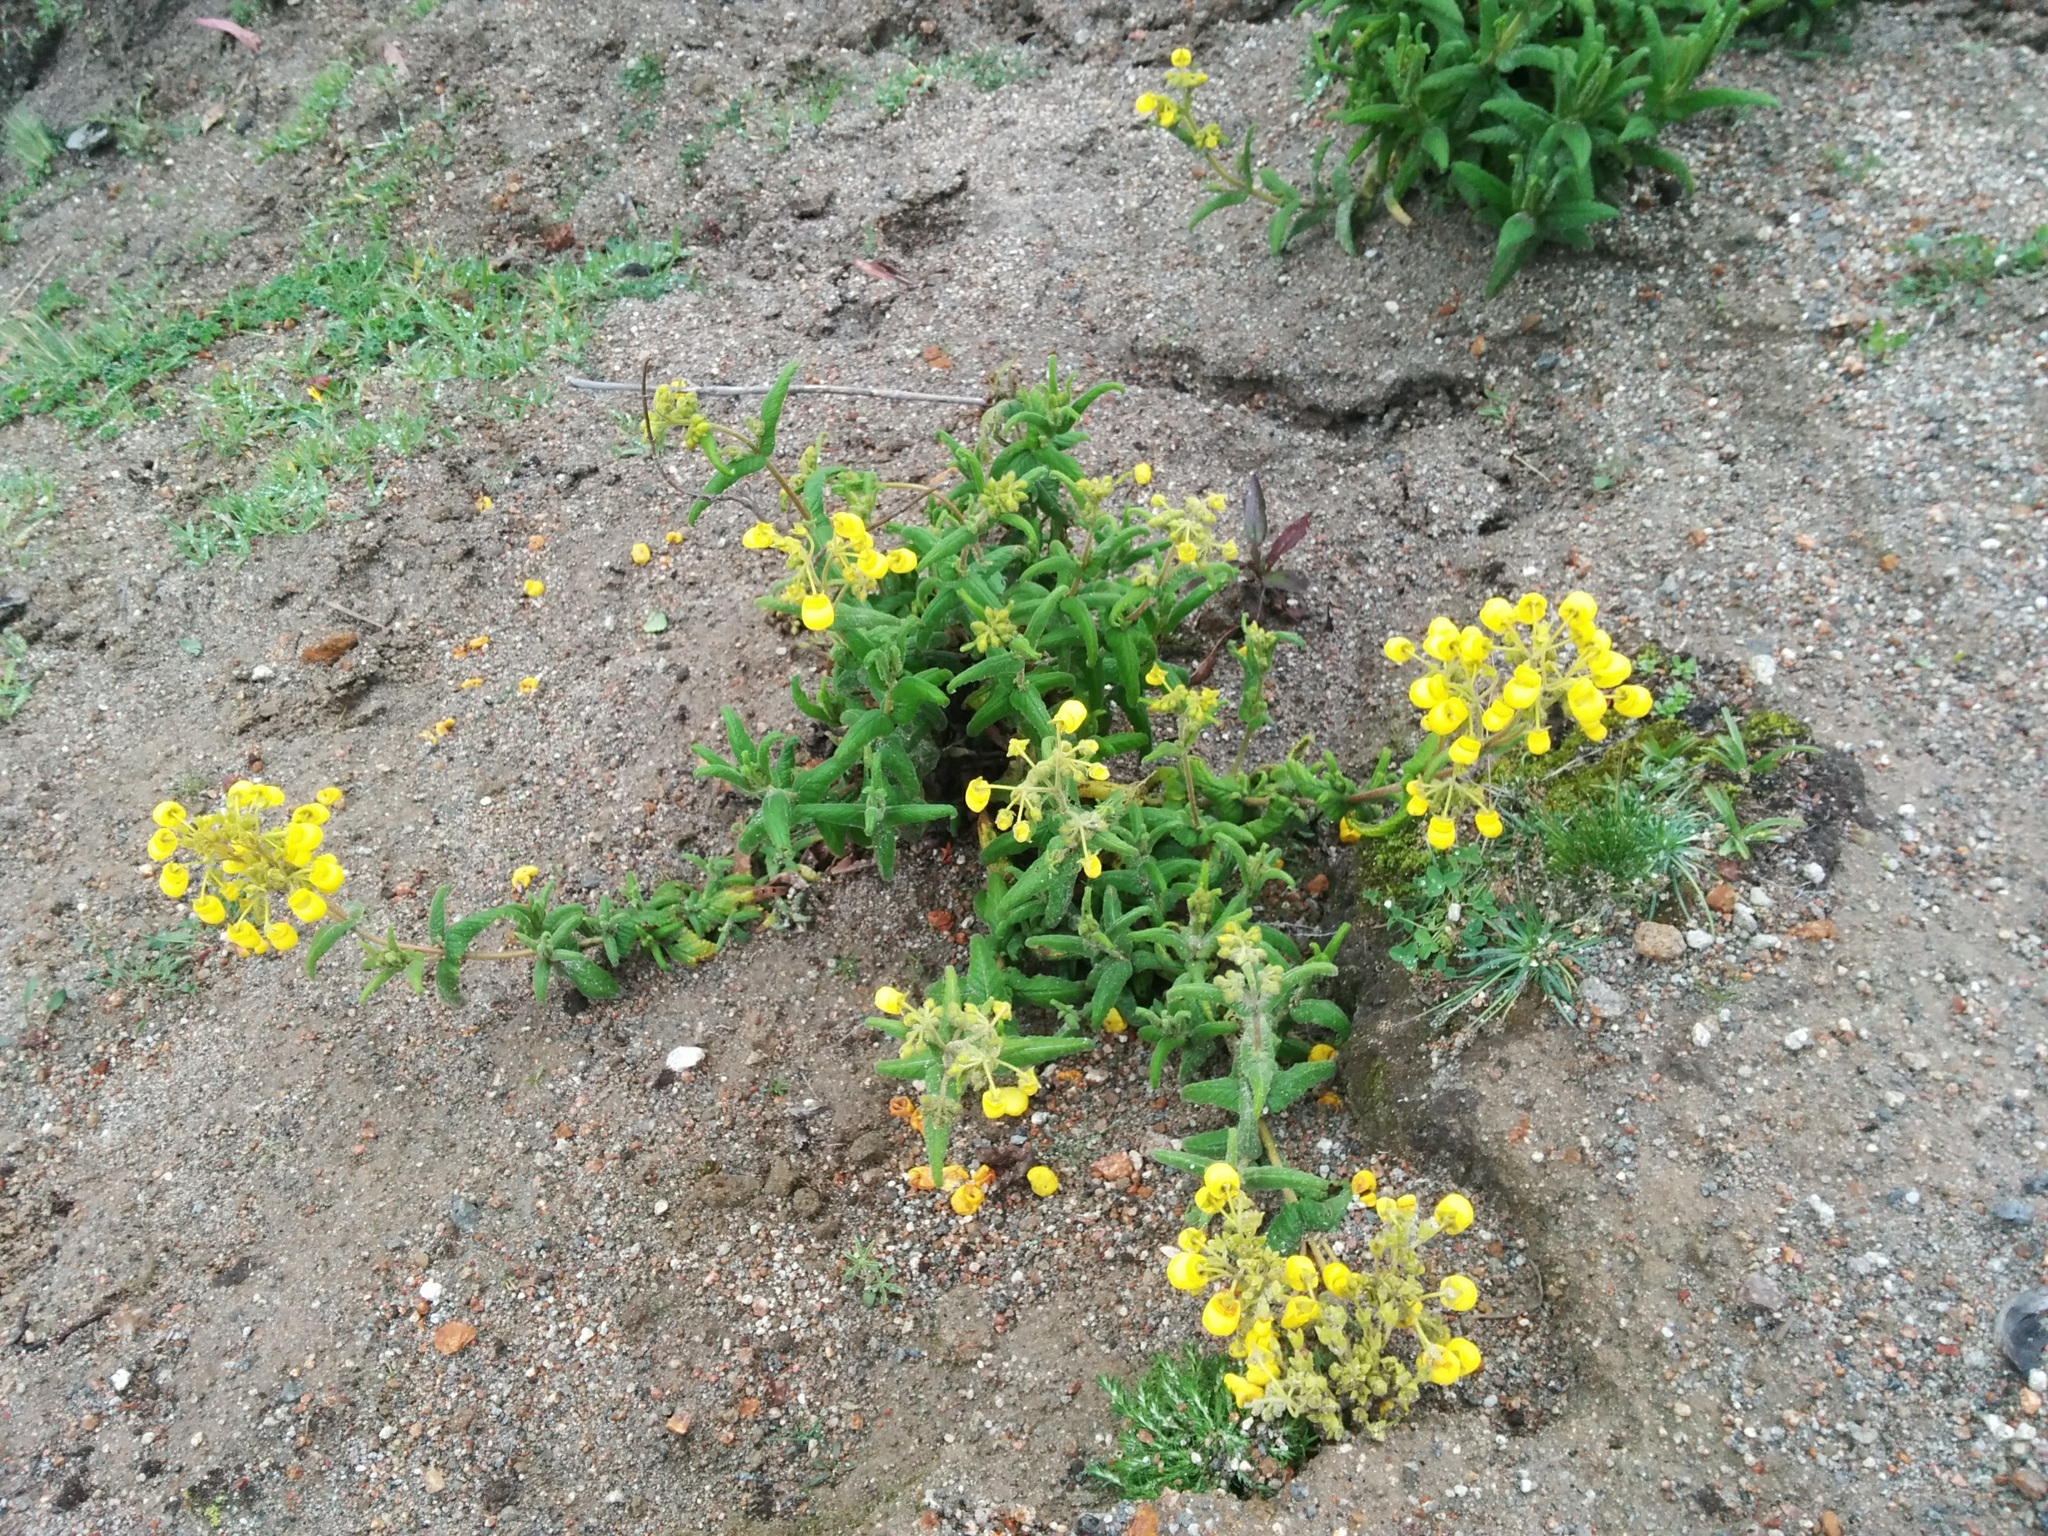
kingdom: Plantae
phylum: Tracheophyta
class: Magnoliopsida
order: Lamiales
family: Calceolariaceae
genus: Calceolaria
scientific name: Calceolaria crenata
